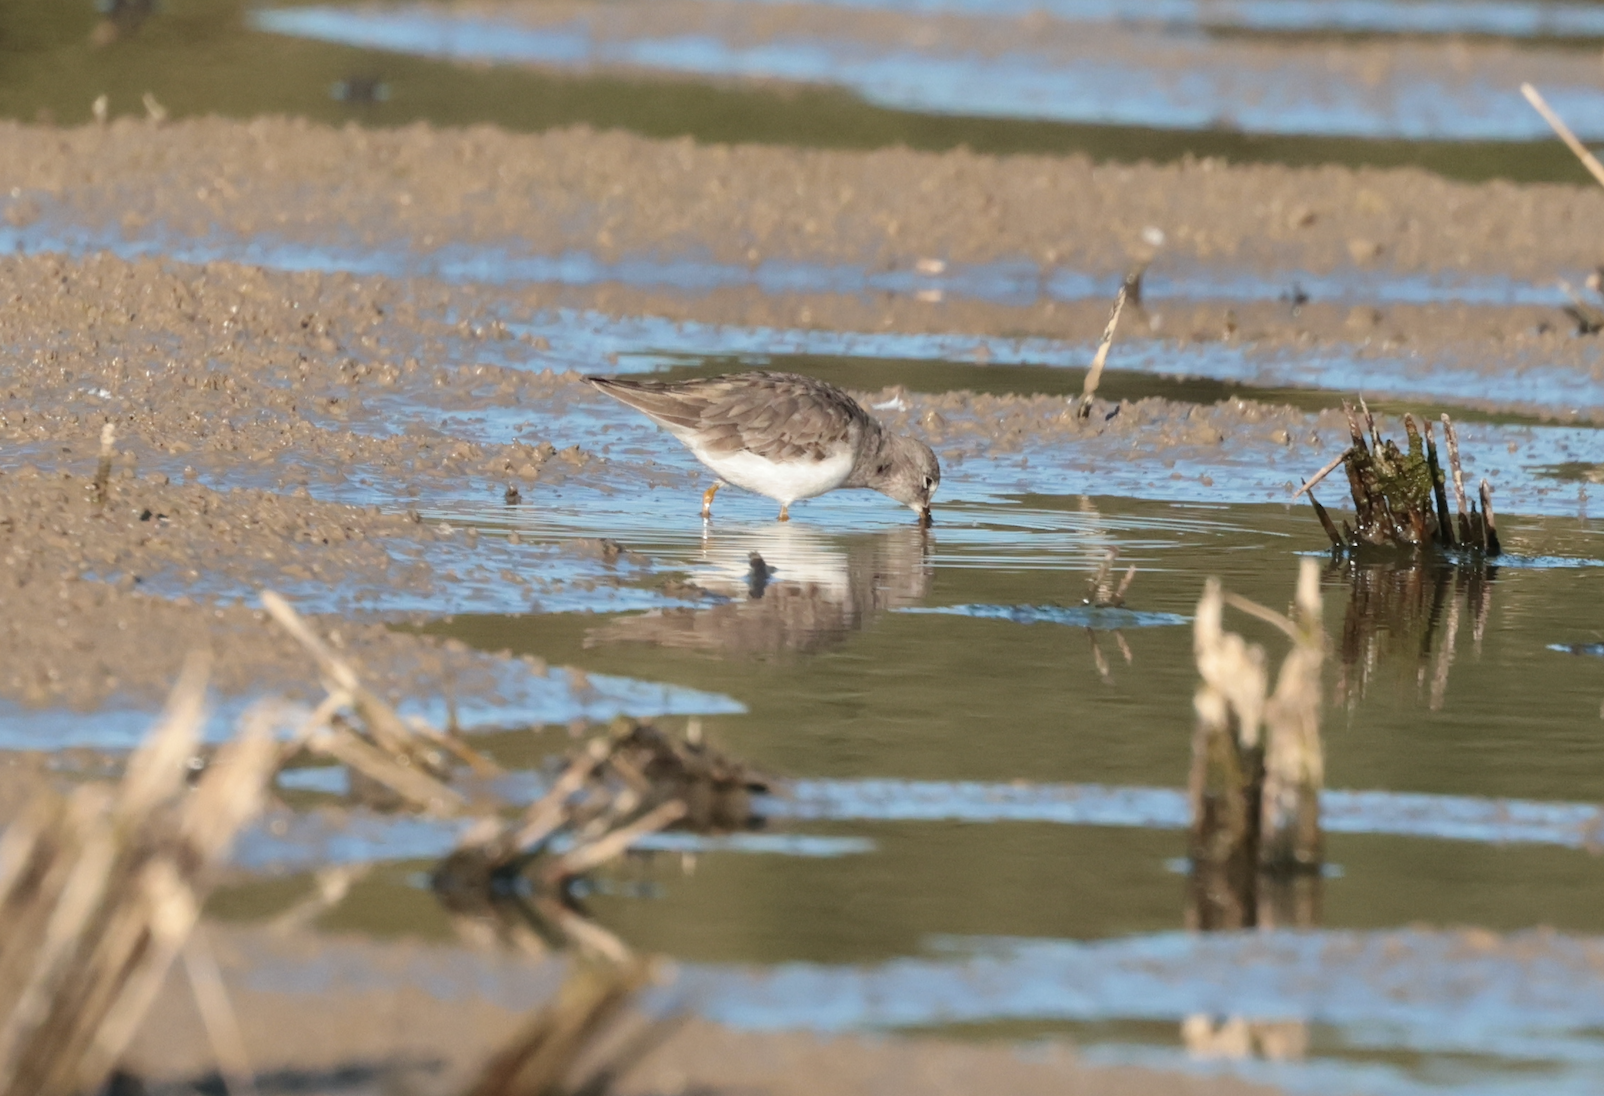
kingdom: Animalia
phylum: Chordata
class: Aves
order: Charadriiformes
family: Scolopacidae
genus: Calidris
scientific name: Calidris temminckii
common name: Temminck's stint
